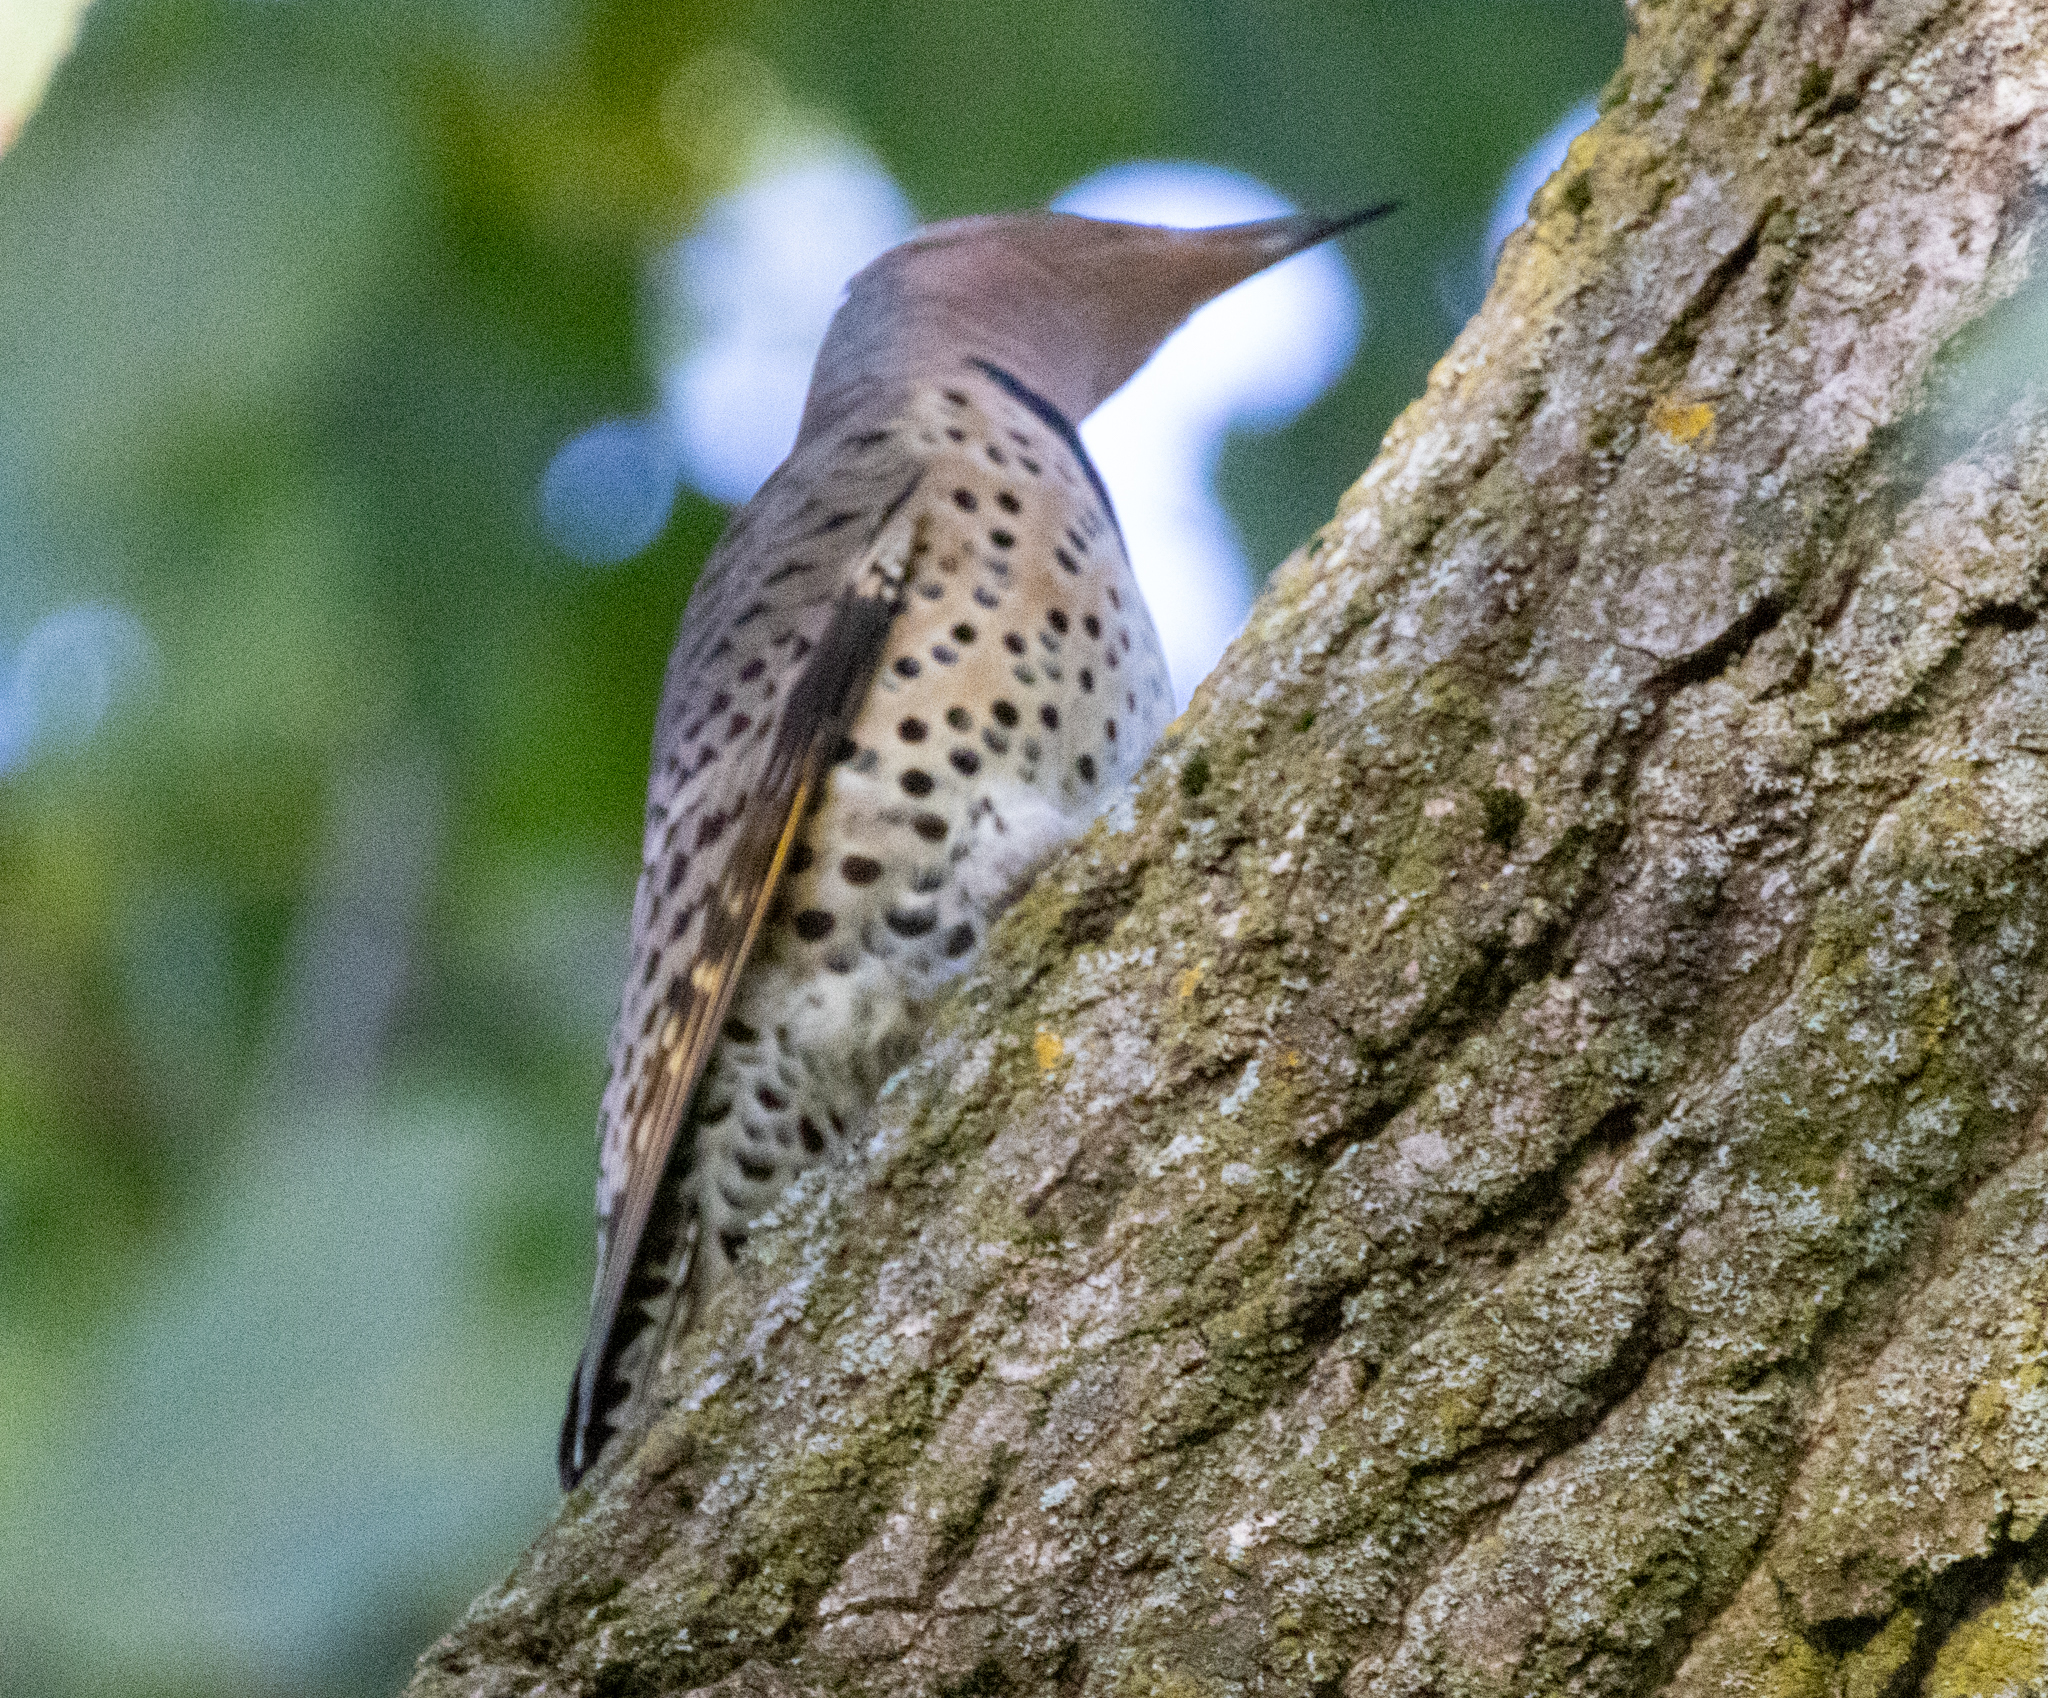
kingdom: Animalia
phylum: Chordata
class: Aves
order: Piciformes
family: Picidae
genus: Colaptes
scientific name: Colaptes auratus
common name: Northern flicker
